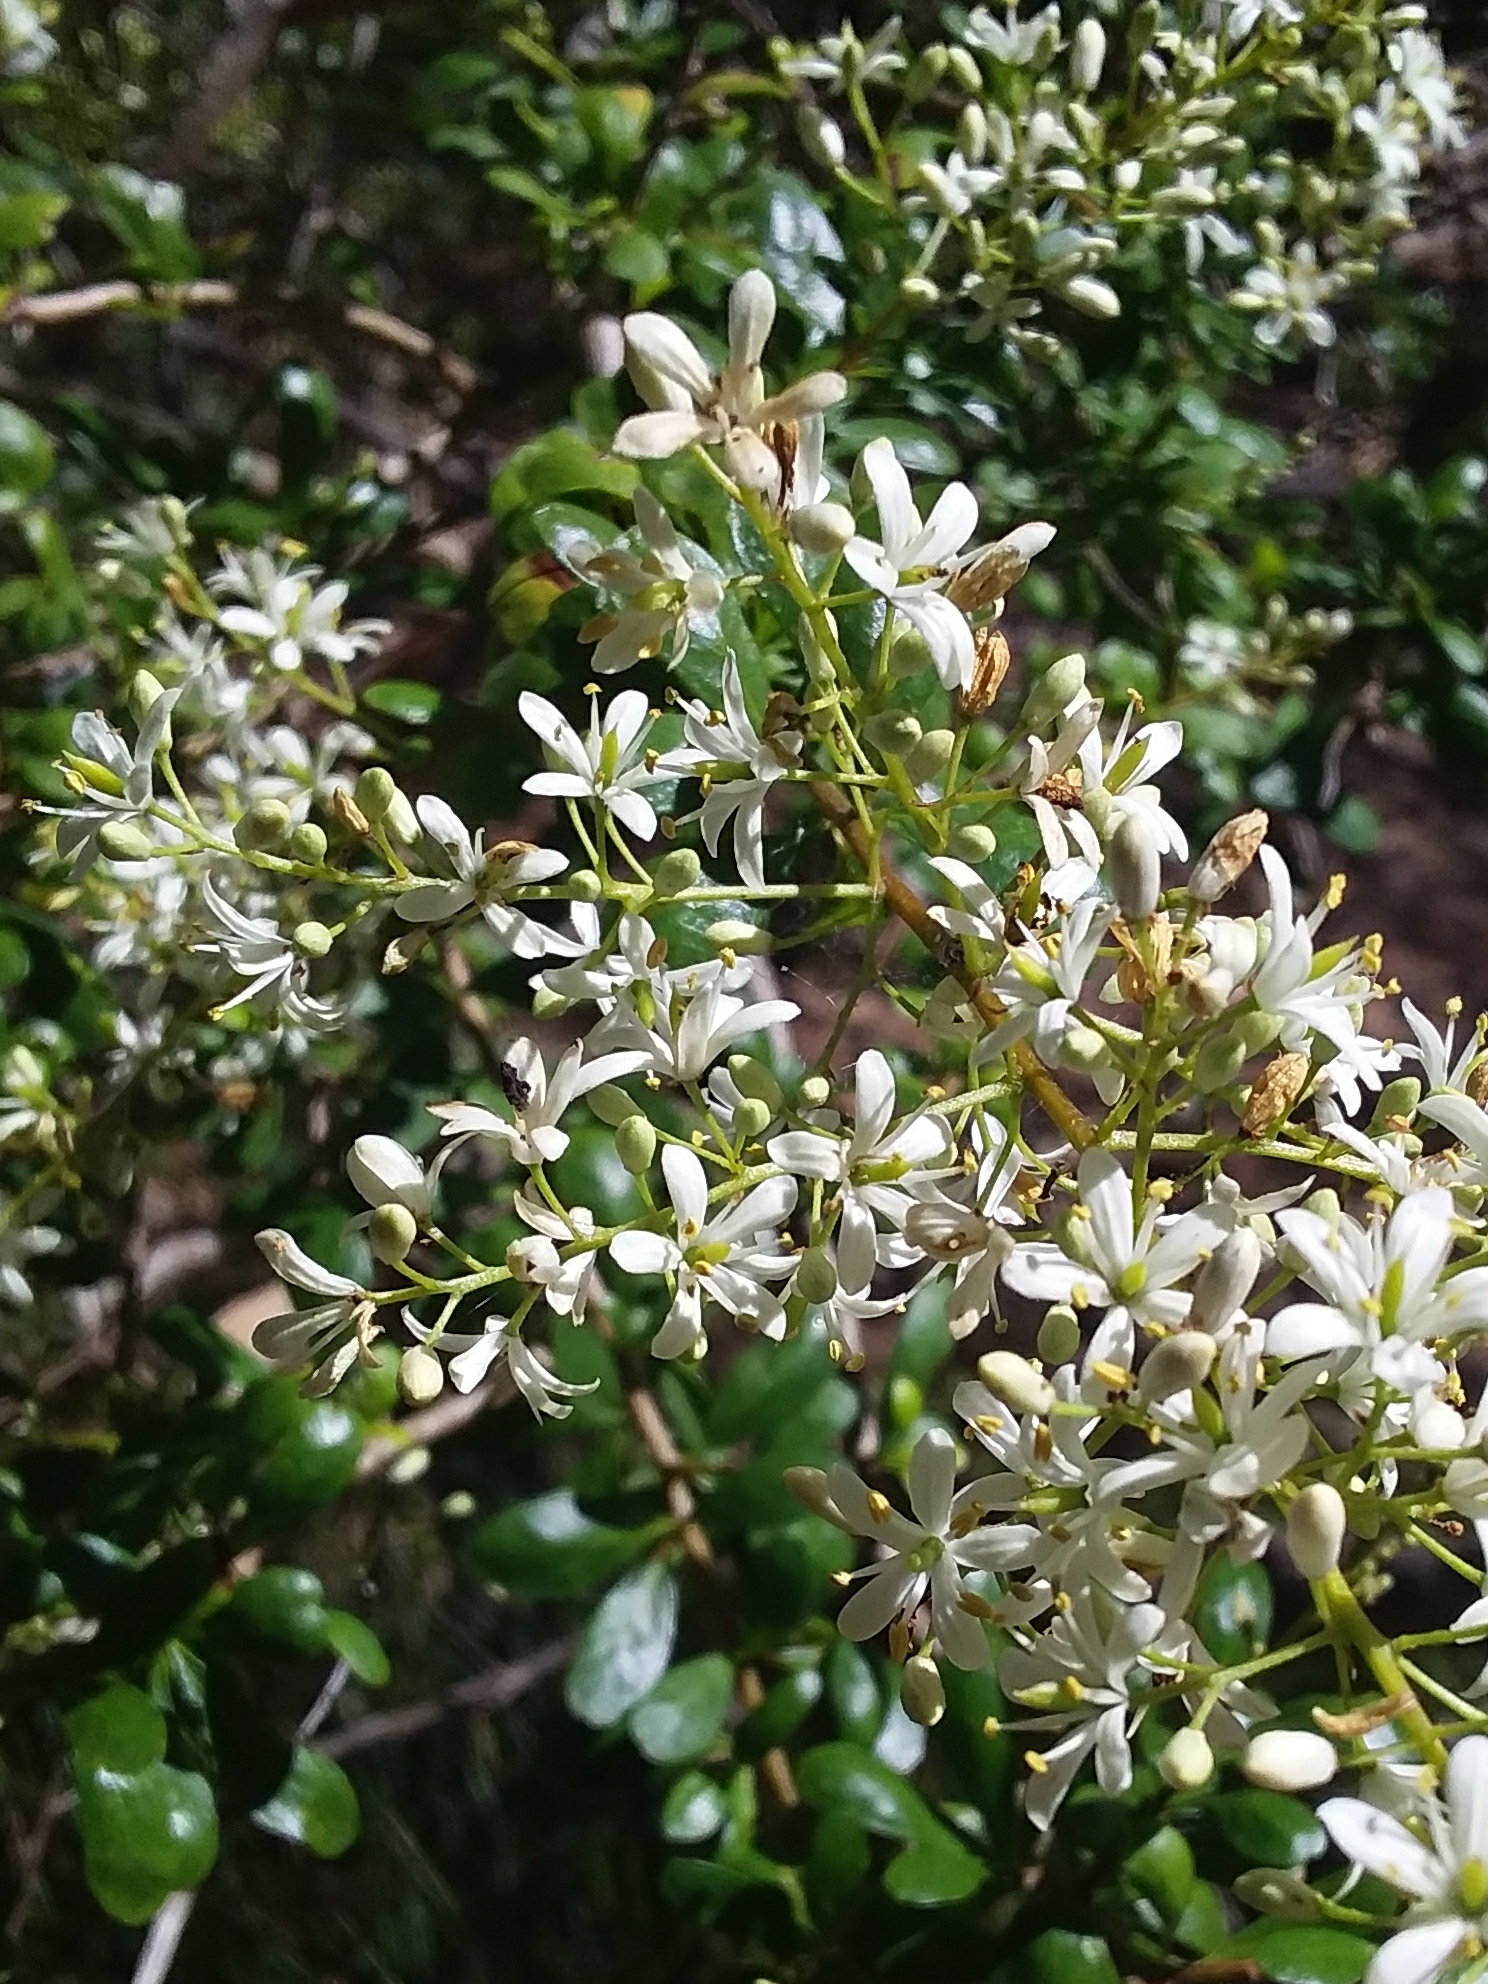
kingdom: Plantae
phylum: Tracheophyta
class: Magnoliopsida
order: Apiales
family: Pittosporaceae
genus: Bursaria
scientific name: Bursaria spinosa
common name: Australian blackthorn
